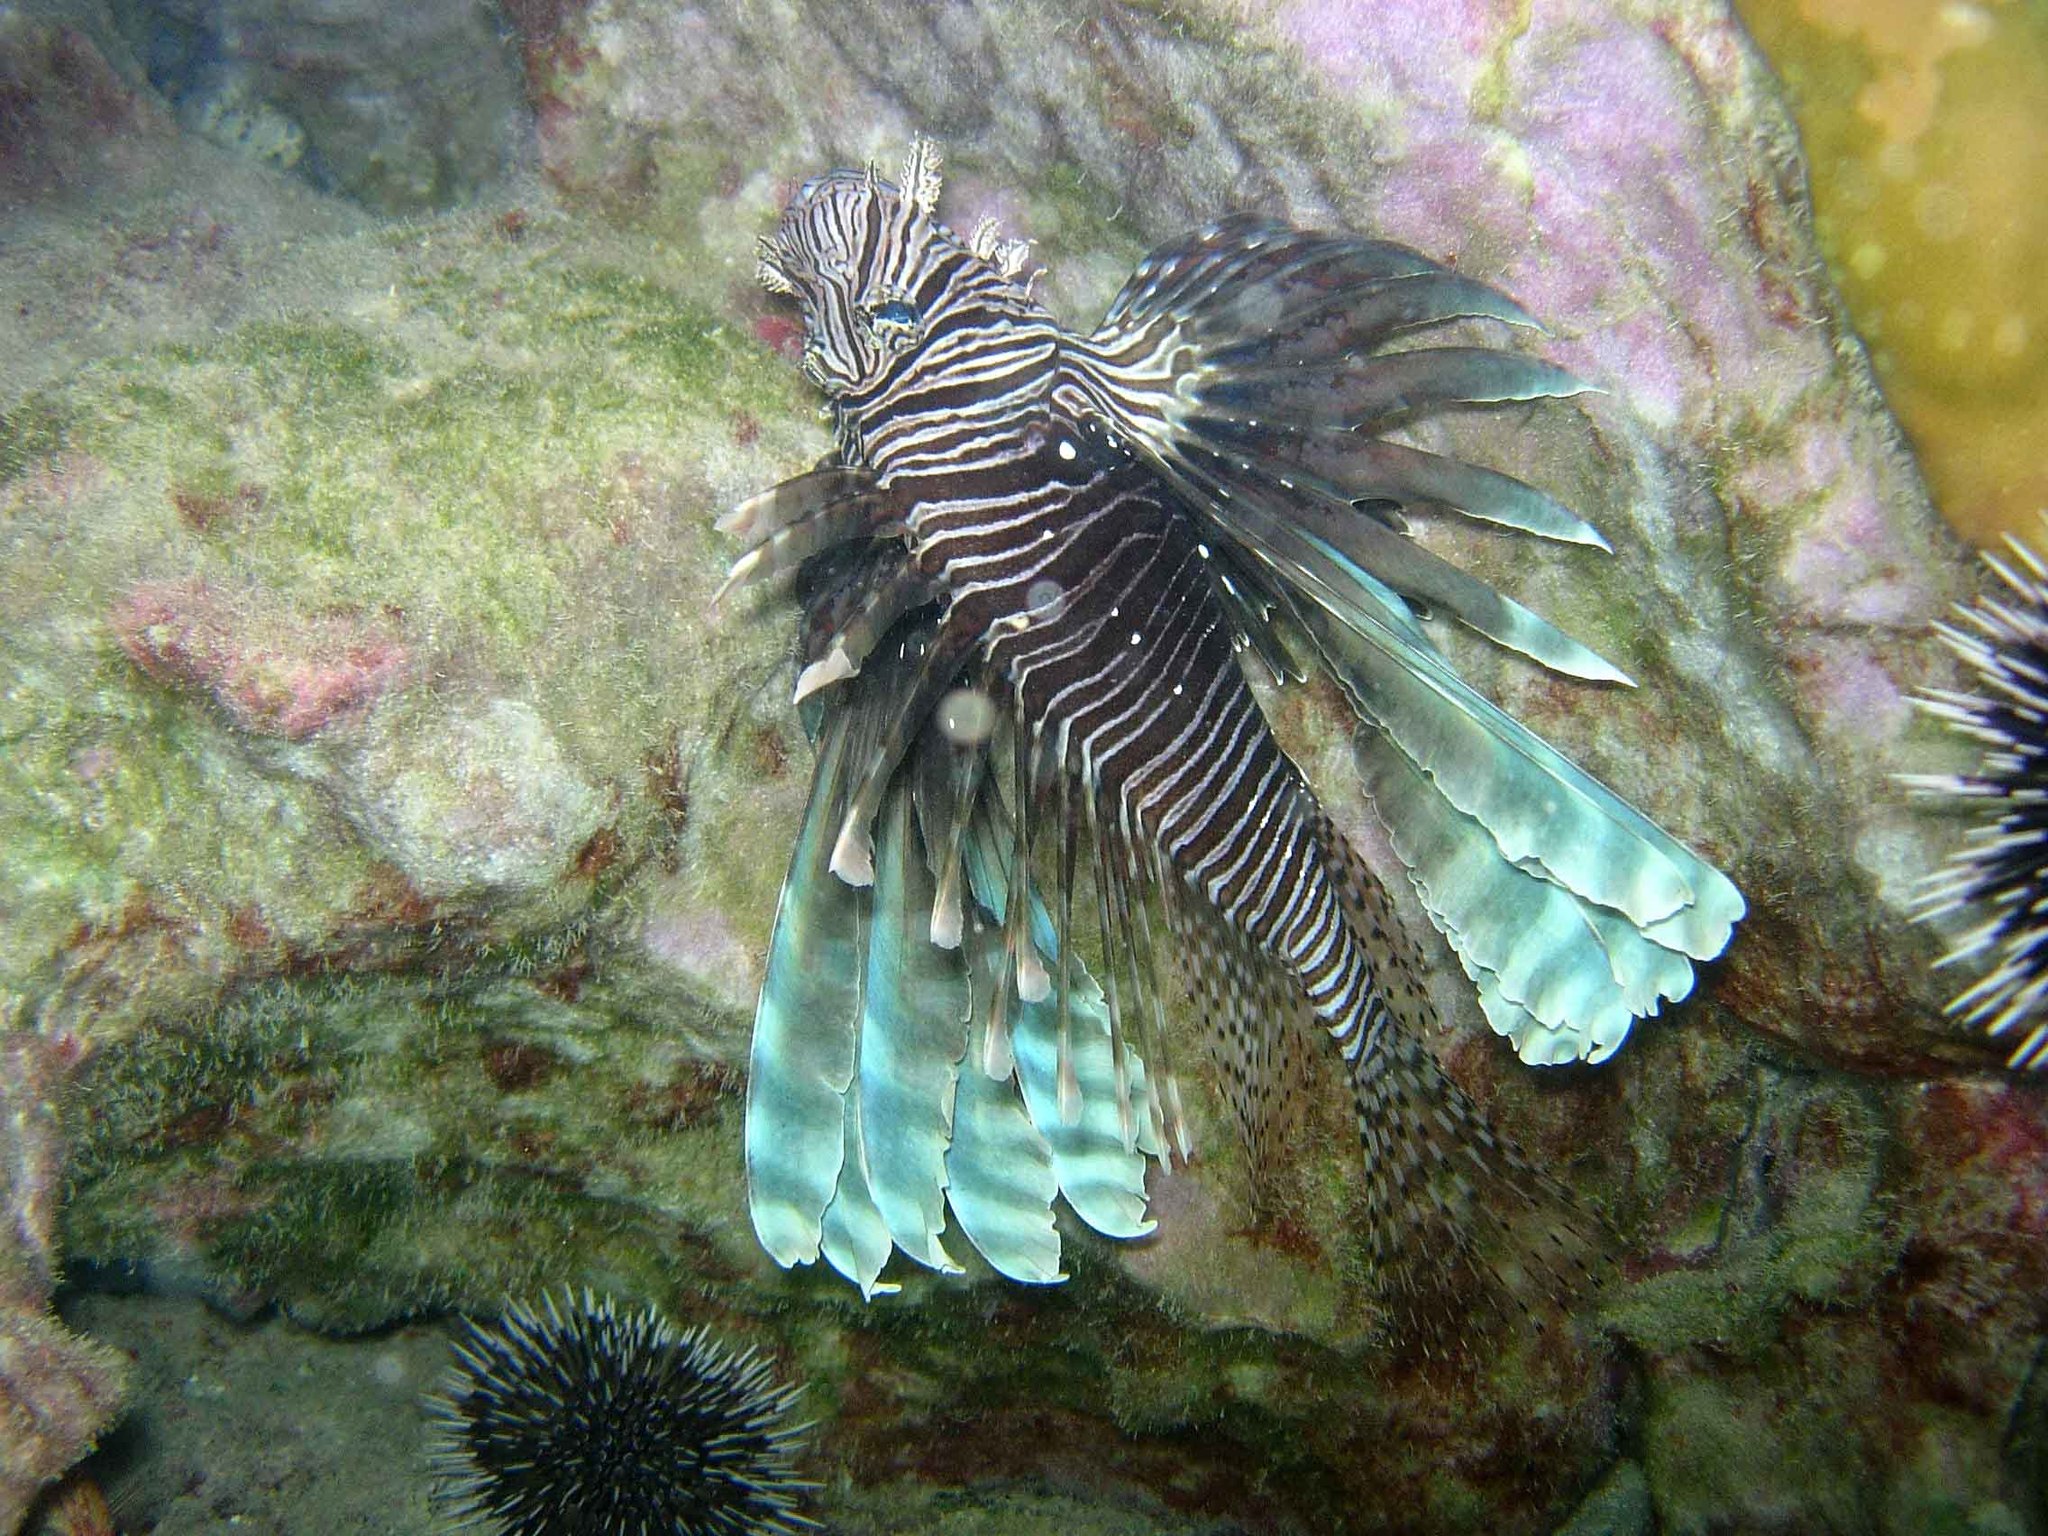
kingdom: Animalia
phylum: Chordata
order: Scorpaeniformes
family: Scorpaenidae
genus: Pterois
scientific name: Pterois volitans
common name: Lionfish
